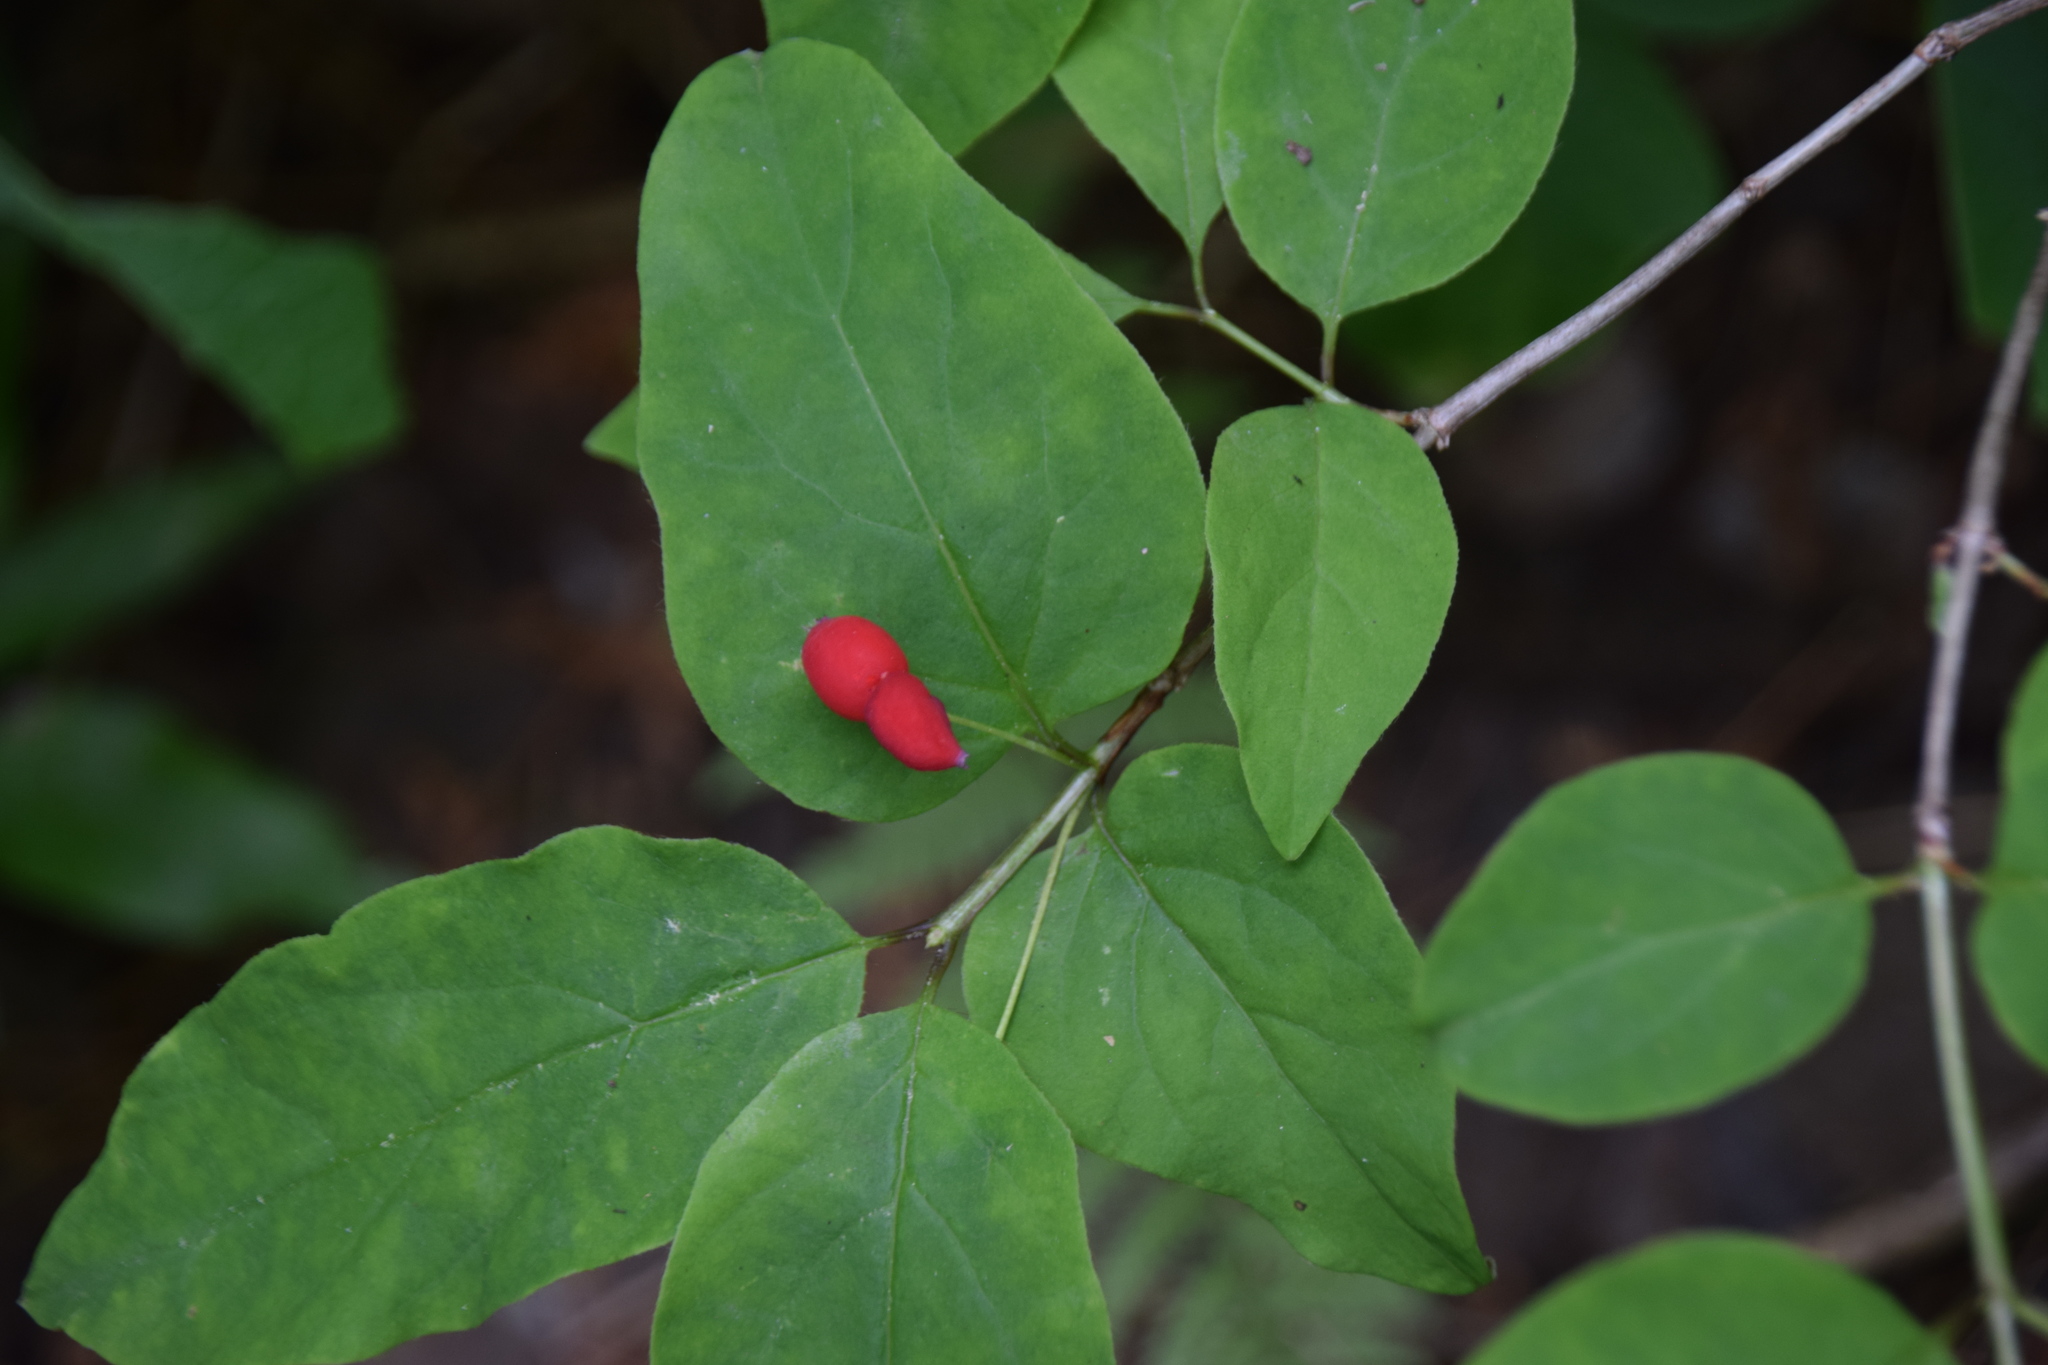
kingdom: Plantae
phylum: Tracheophyta
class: Magnoliopsida
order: Dipsacales
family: Caprifoliaceae
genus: Lonicera
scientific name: Lonicera canadensis
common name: American fly-honeysuckle
